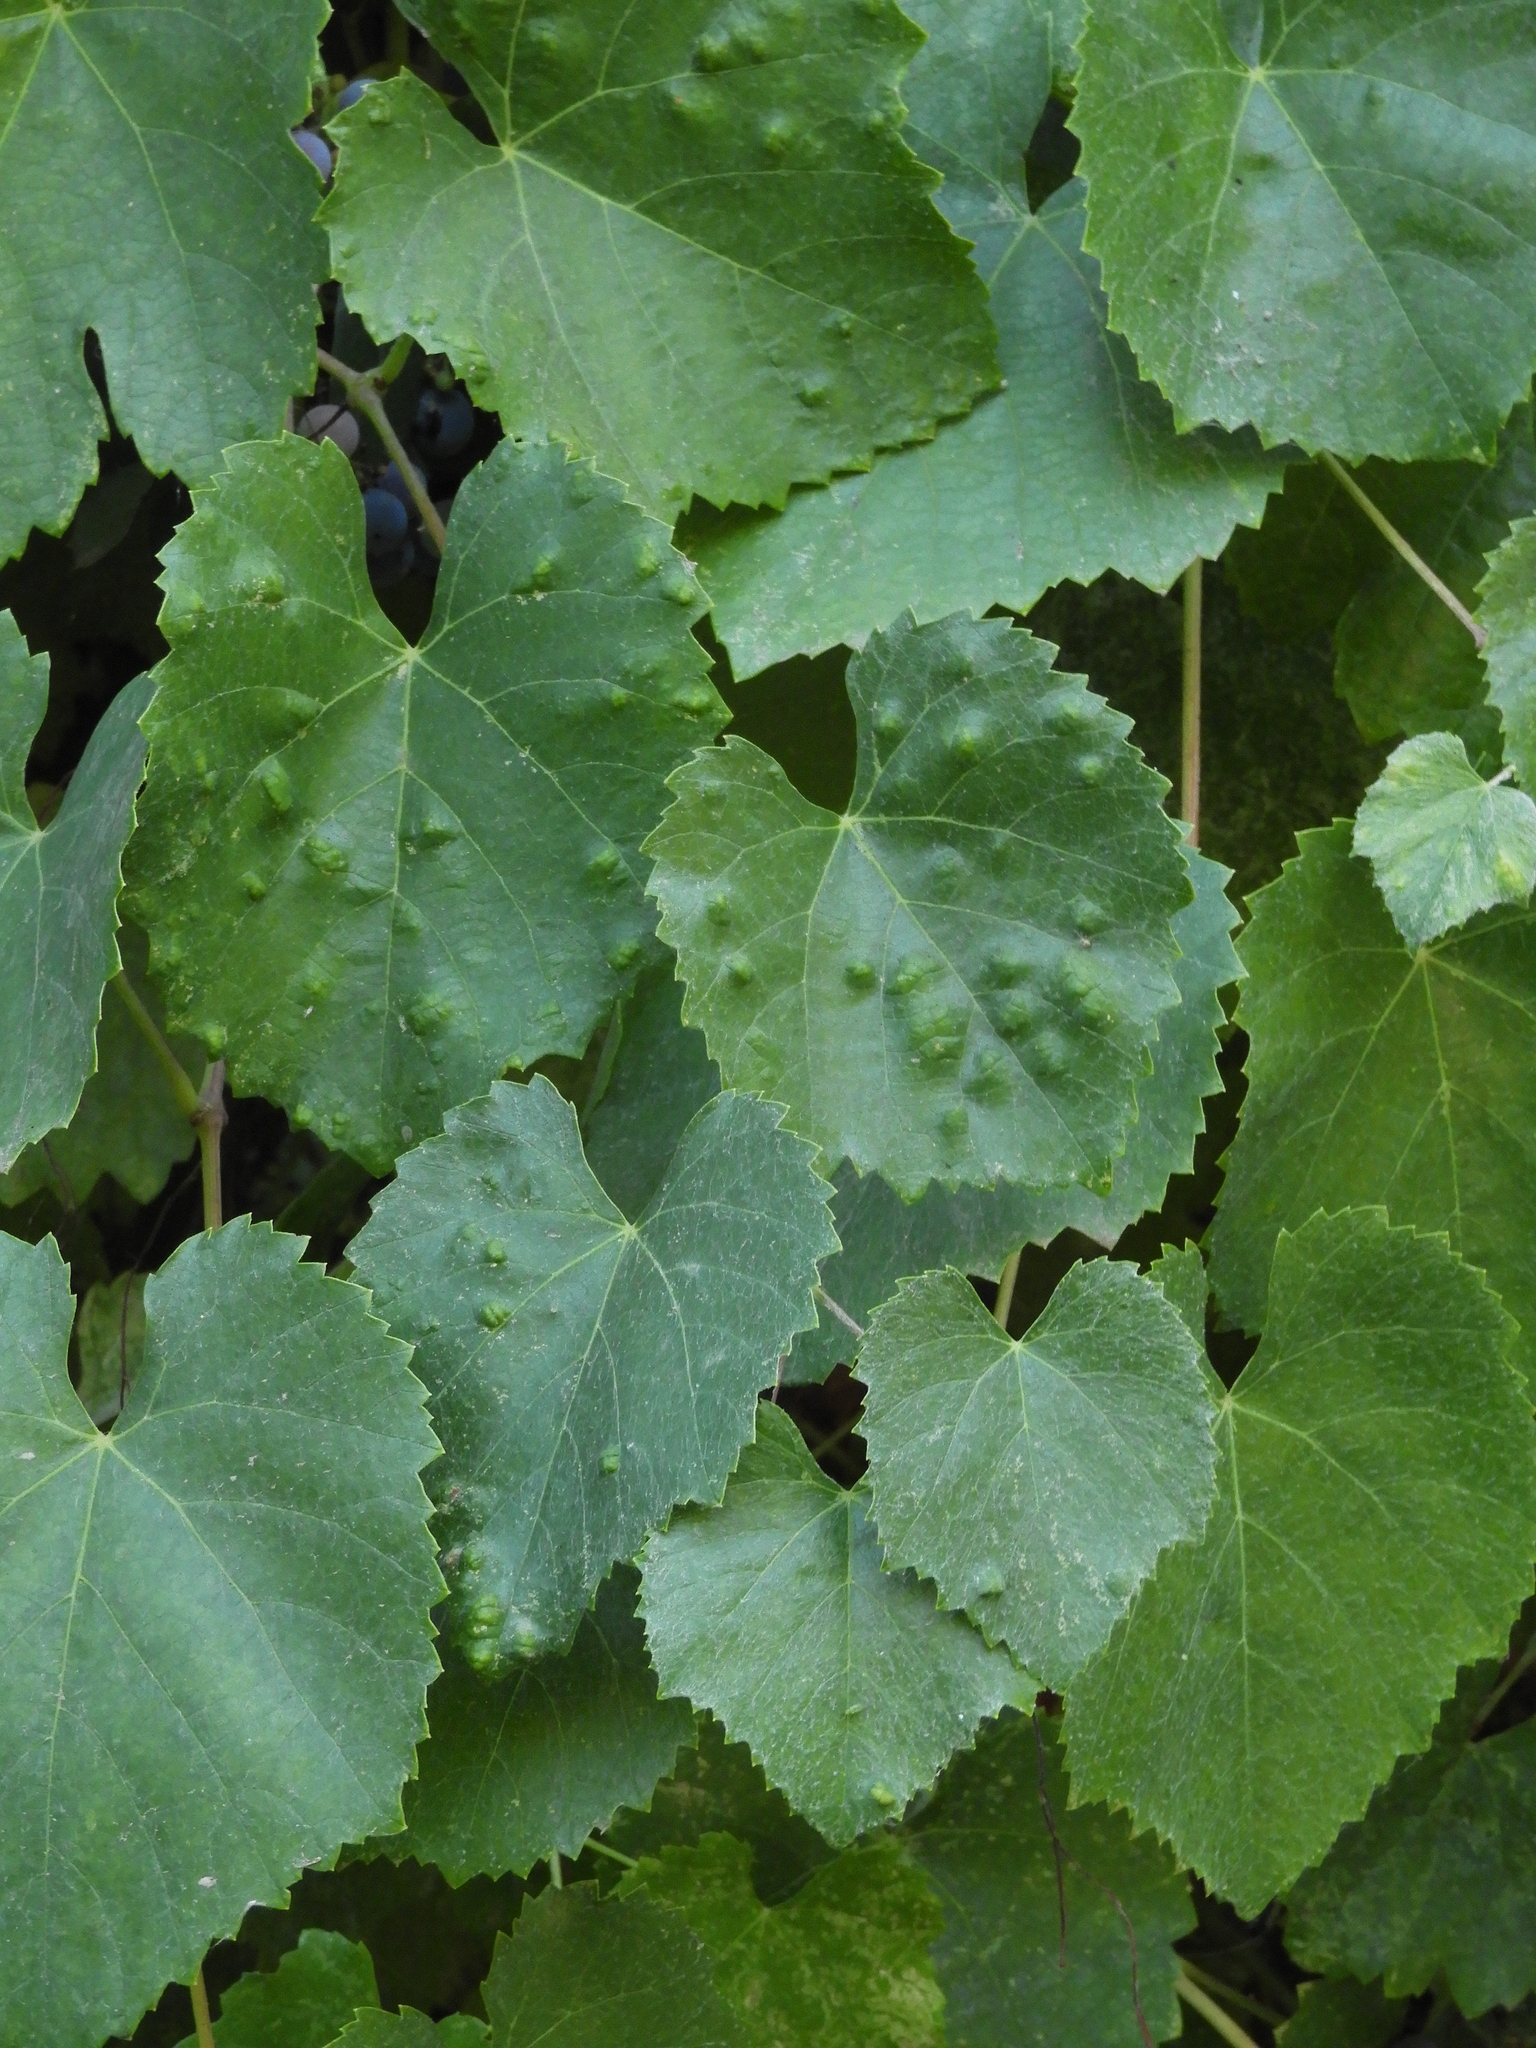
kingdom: Animalia
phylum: Arthropoda
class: Arachnida
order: Trombidiformes
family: Eriophyidae
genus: Colomerus
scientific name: Colomerus vitis
